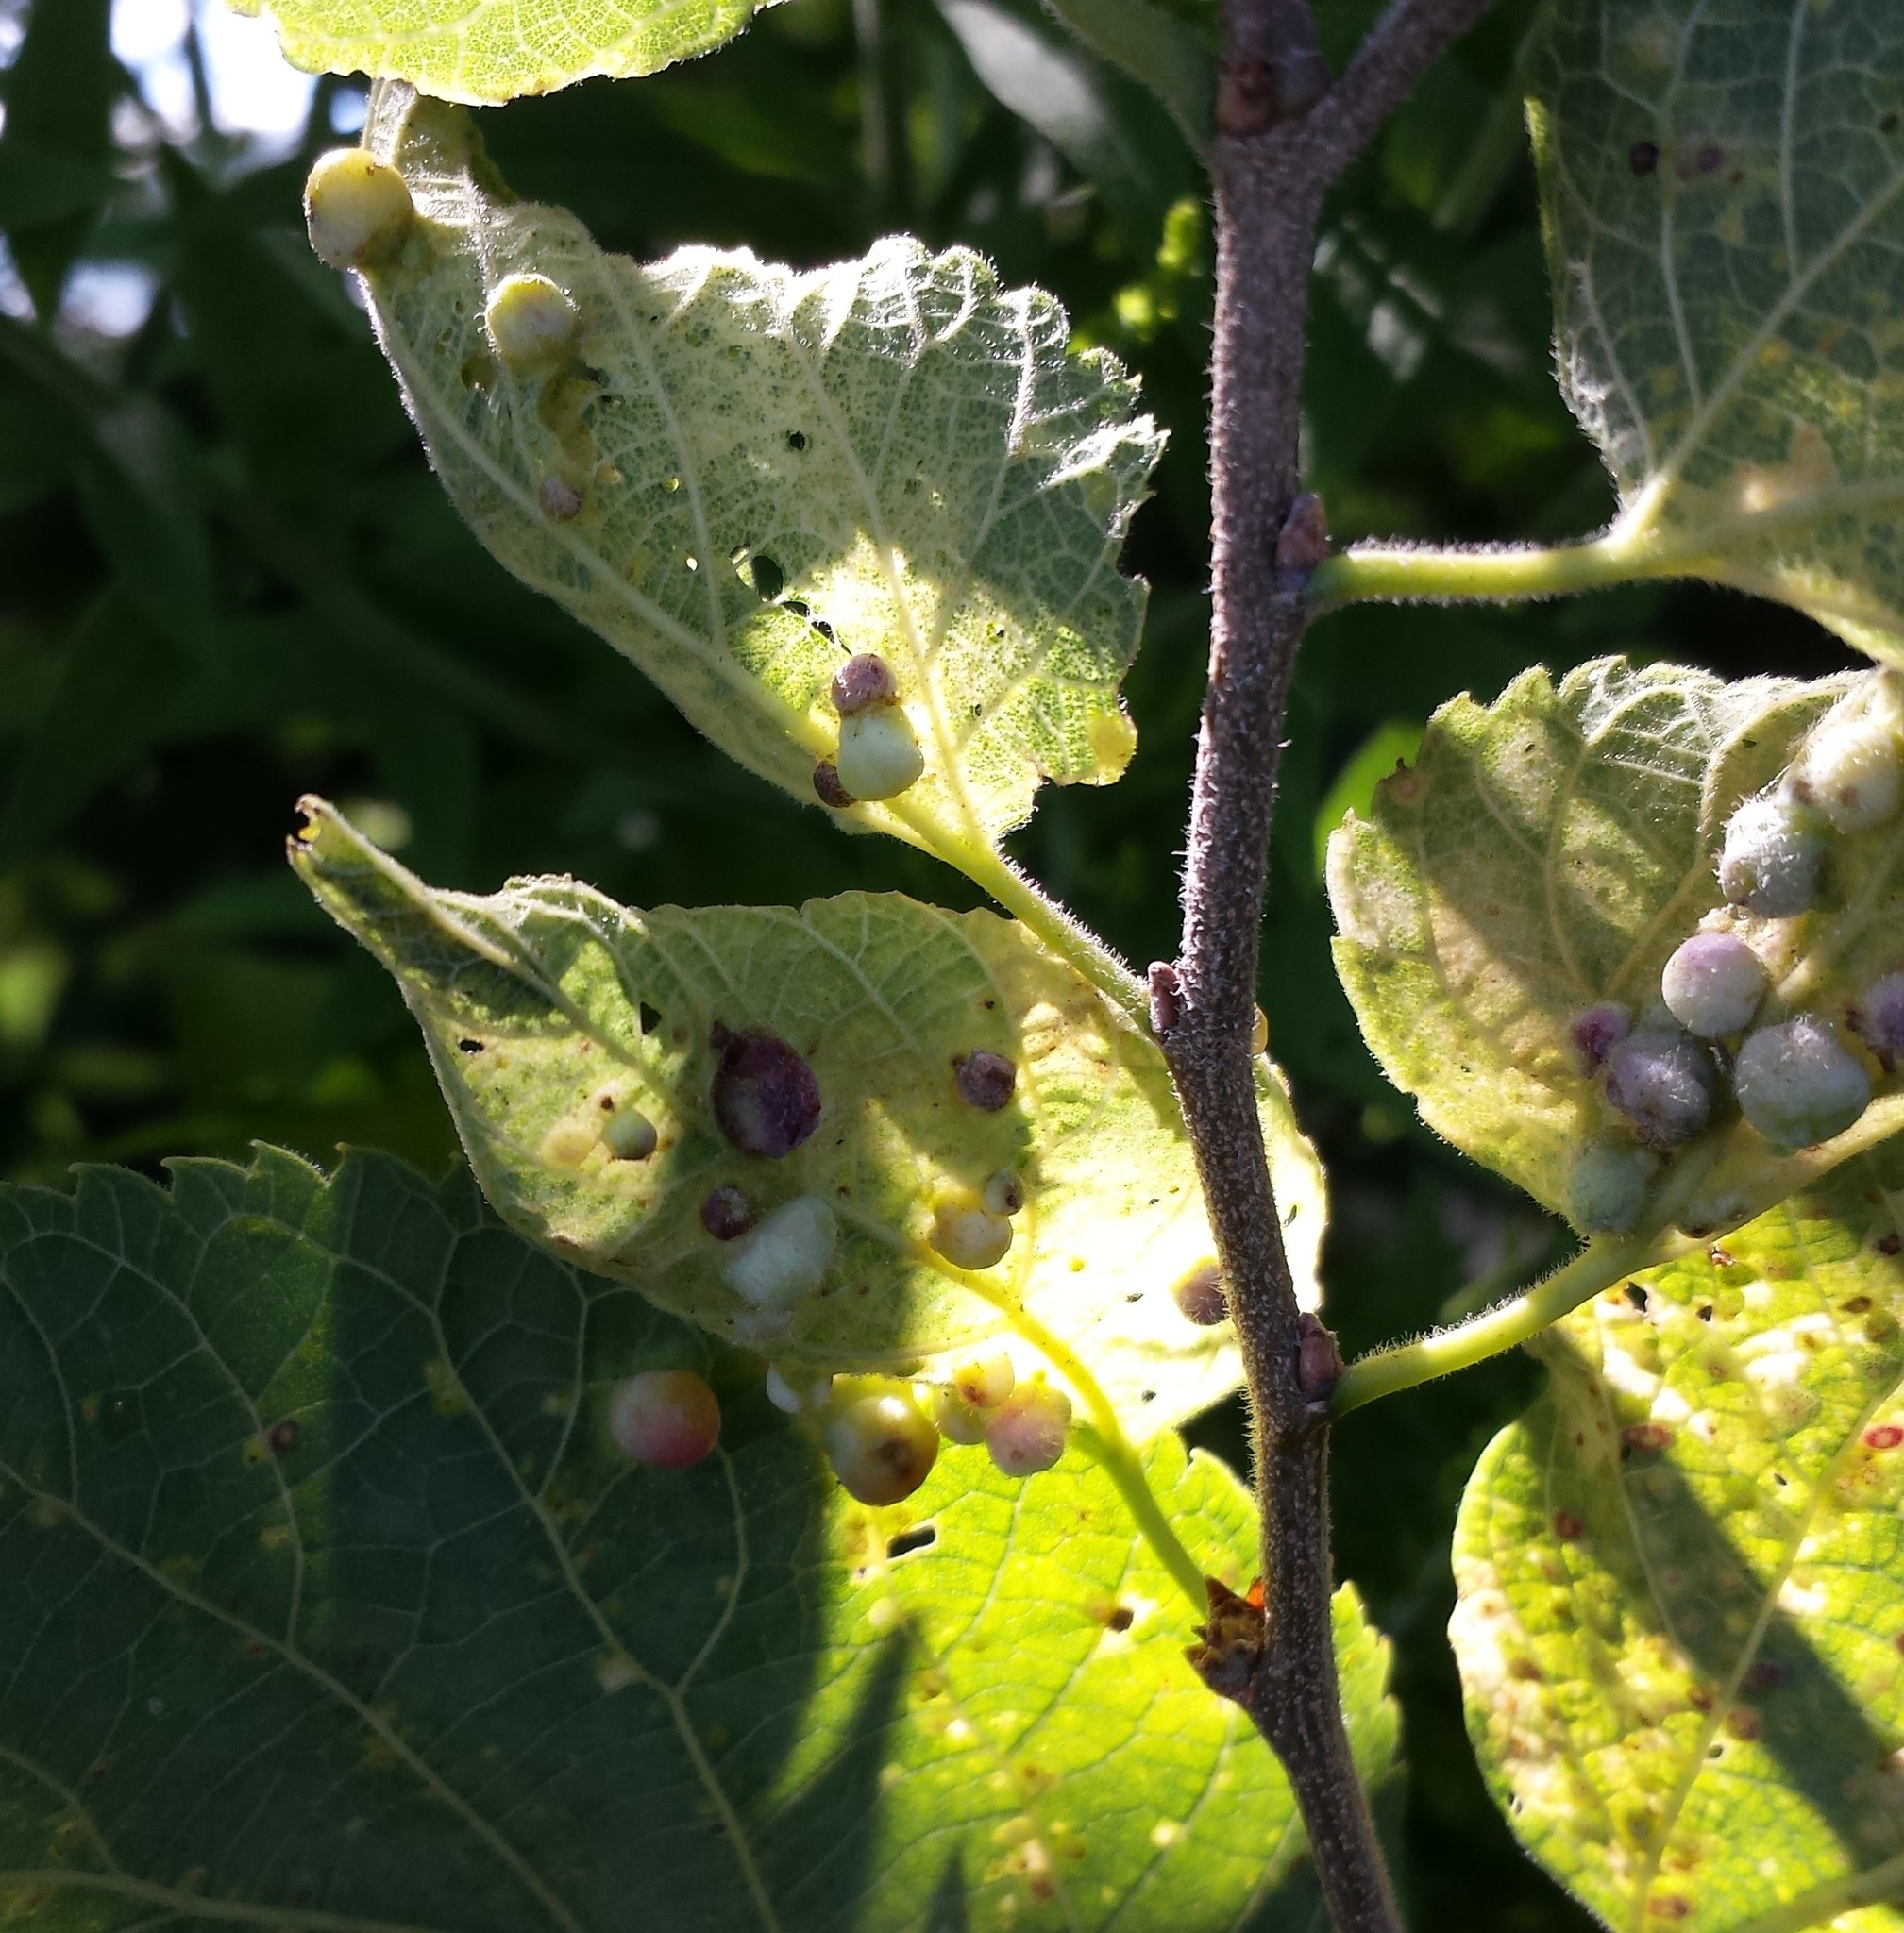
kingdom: Animalia
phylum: Arthropoda
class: Insecta
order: Hemiptera
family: Aphalaridae
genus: Pachypsylla
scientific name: Pachypsylla celtidismamma
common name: Hackberry nipplegall psyllid
